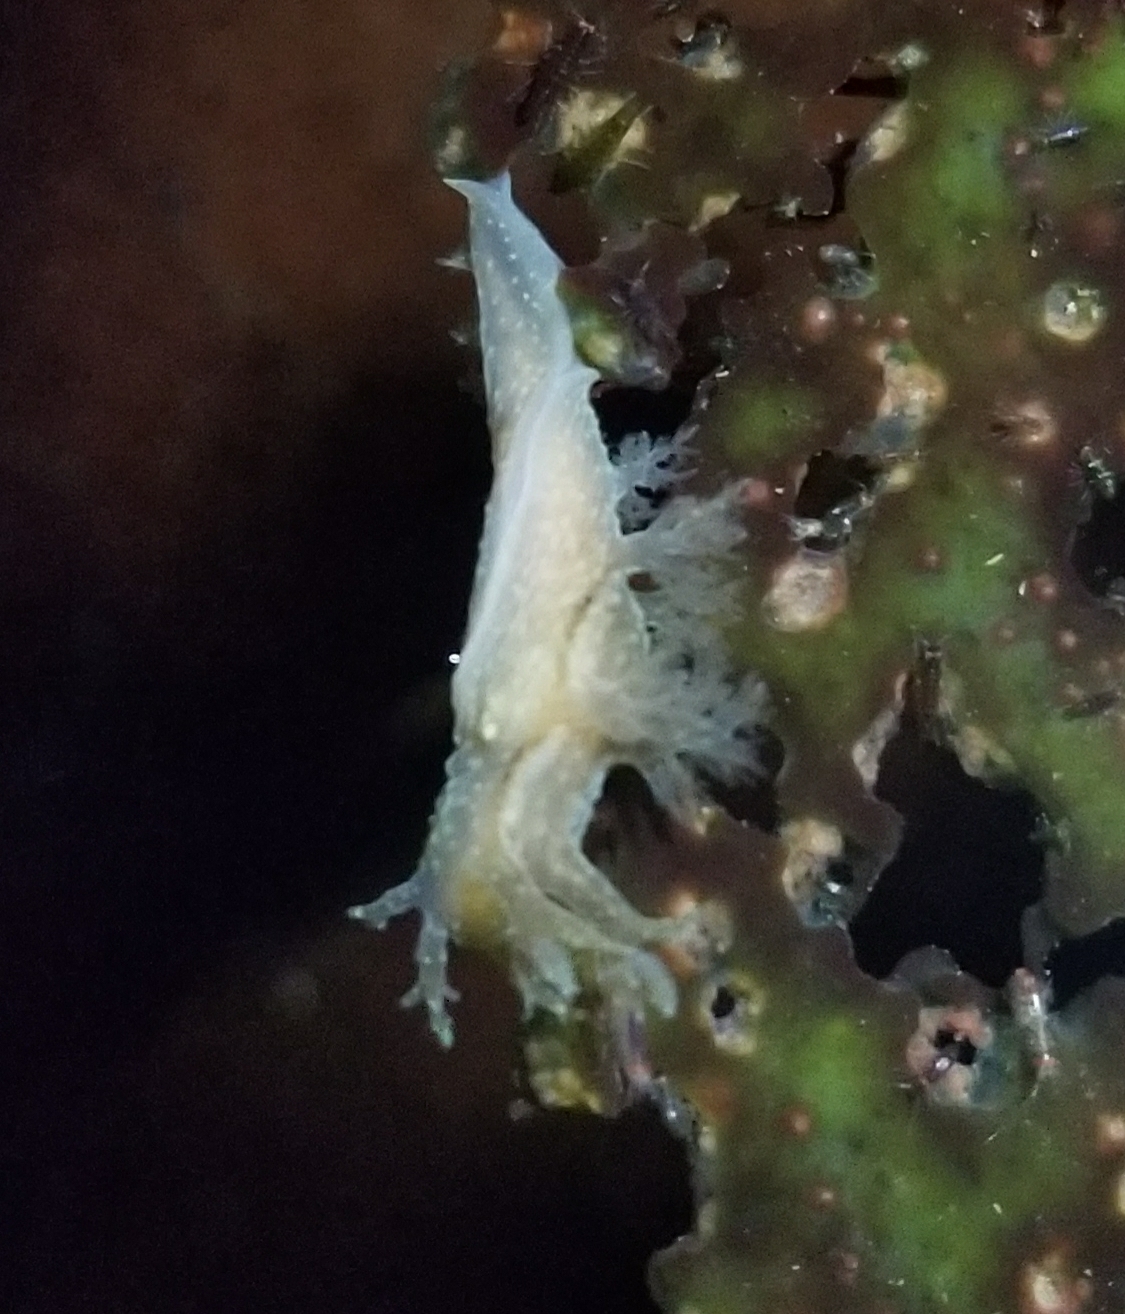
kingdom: Animalia
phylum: Mollusca
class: Gastropoda
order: Nudibranchia
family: Dendronotidae
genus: Dendronotus
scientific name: Dendronotus subramosus
